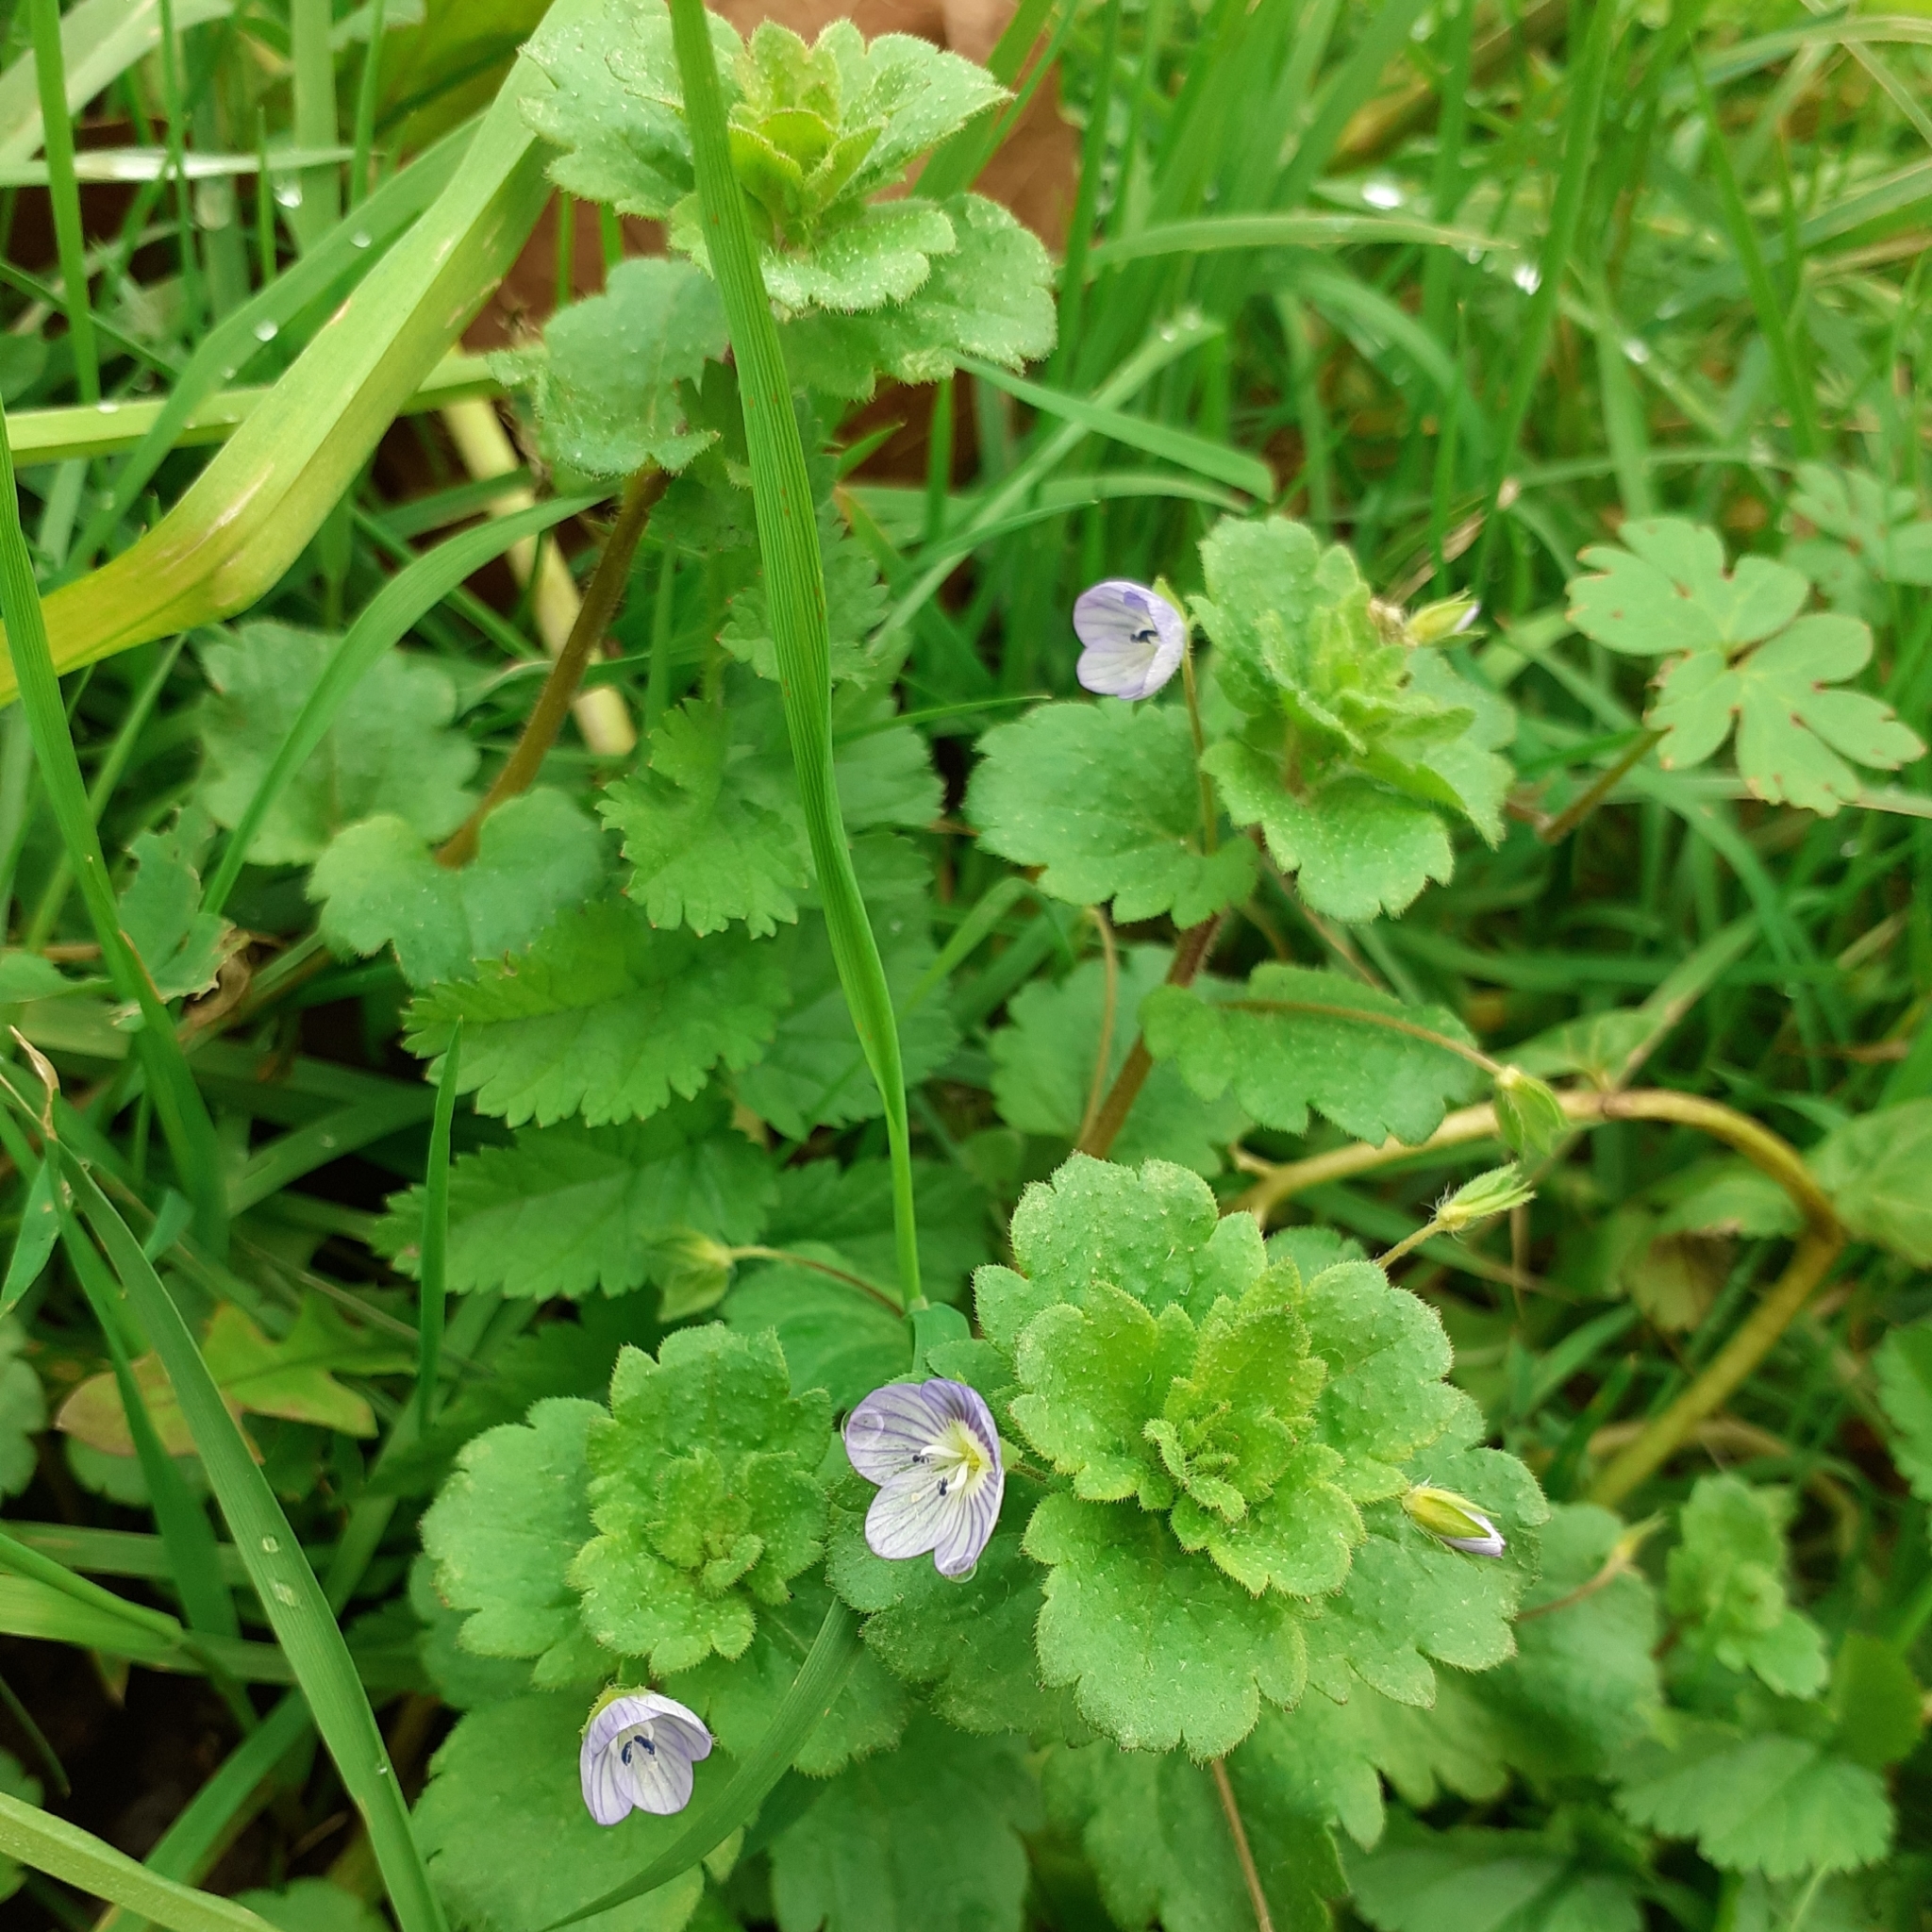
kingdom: Plantae
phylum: Tracheophyta
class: Magnoliopsida
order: Lamiales
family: Plantaginaceae
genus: Veronica
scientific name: Veronica persica
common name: Common field-speedwell
